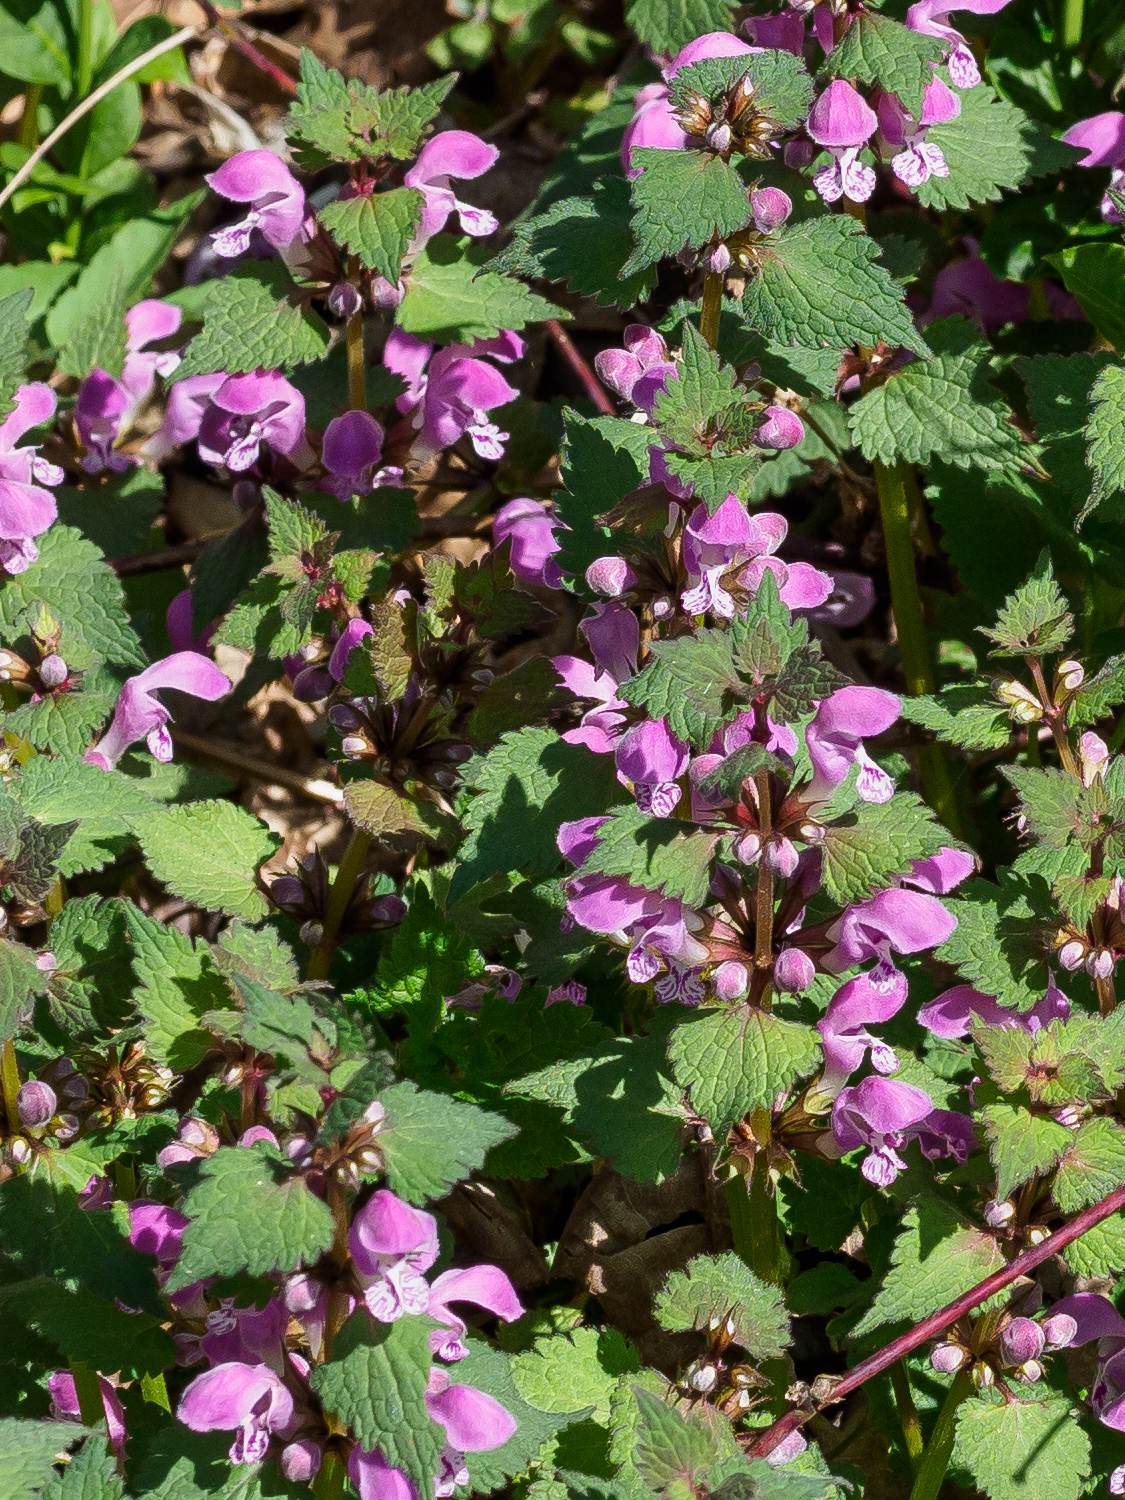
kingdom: Plantae
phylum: Tracheophyta
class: Magnoliopsida
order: Lamiales
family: Lamiaceae
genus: Lamium
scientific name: Lamium maculatum
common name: Spotted dead-nettle
